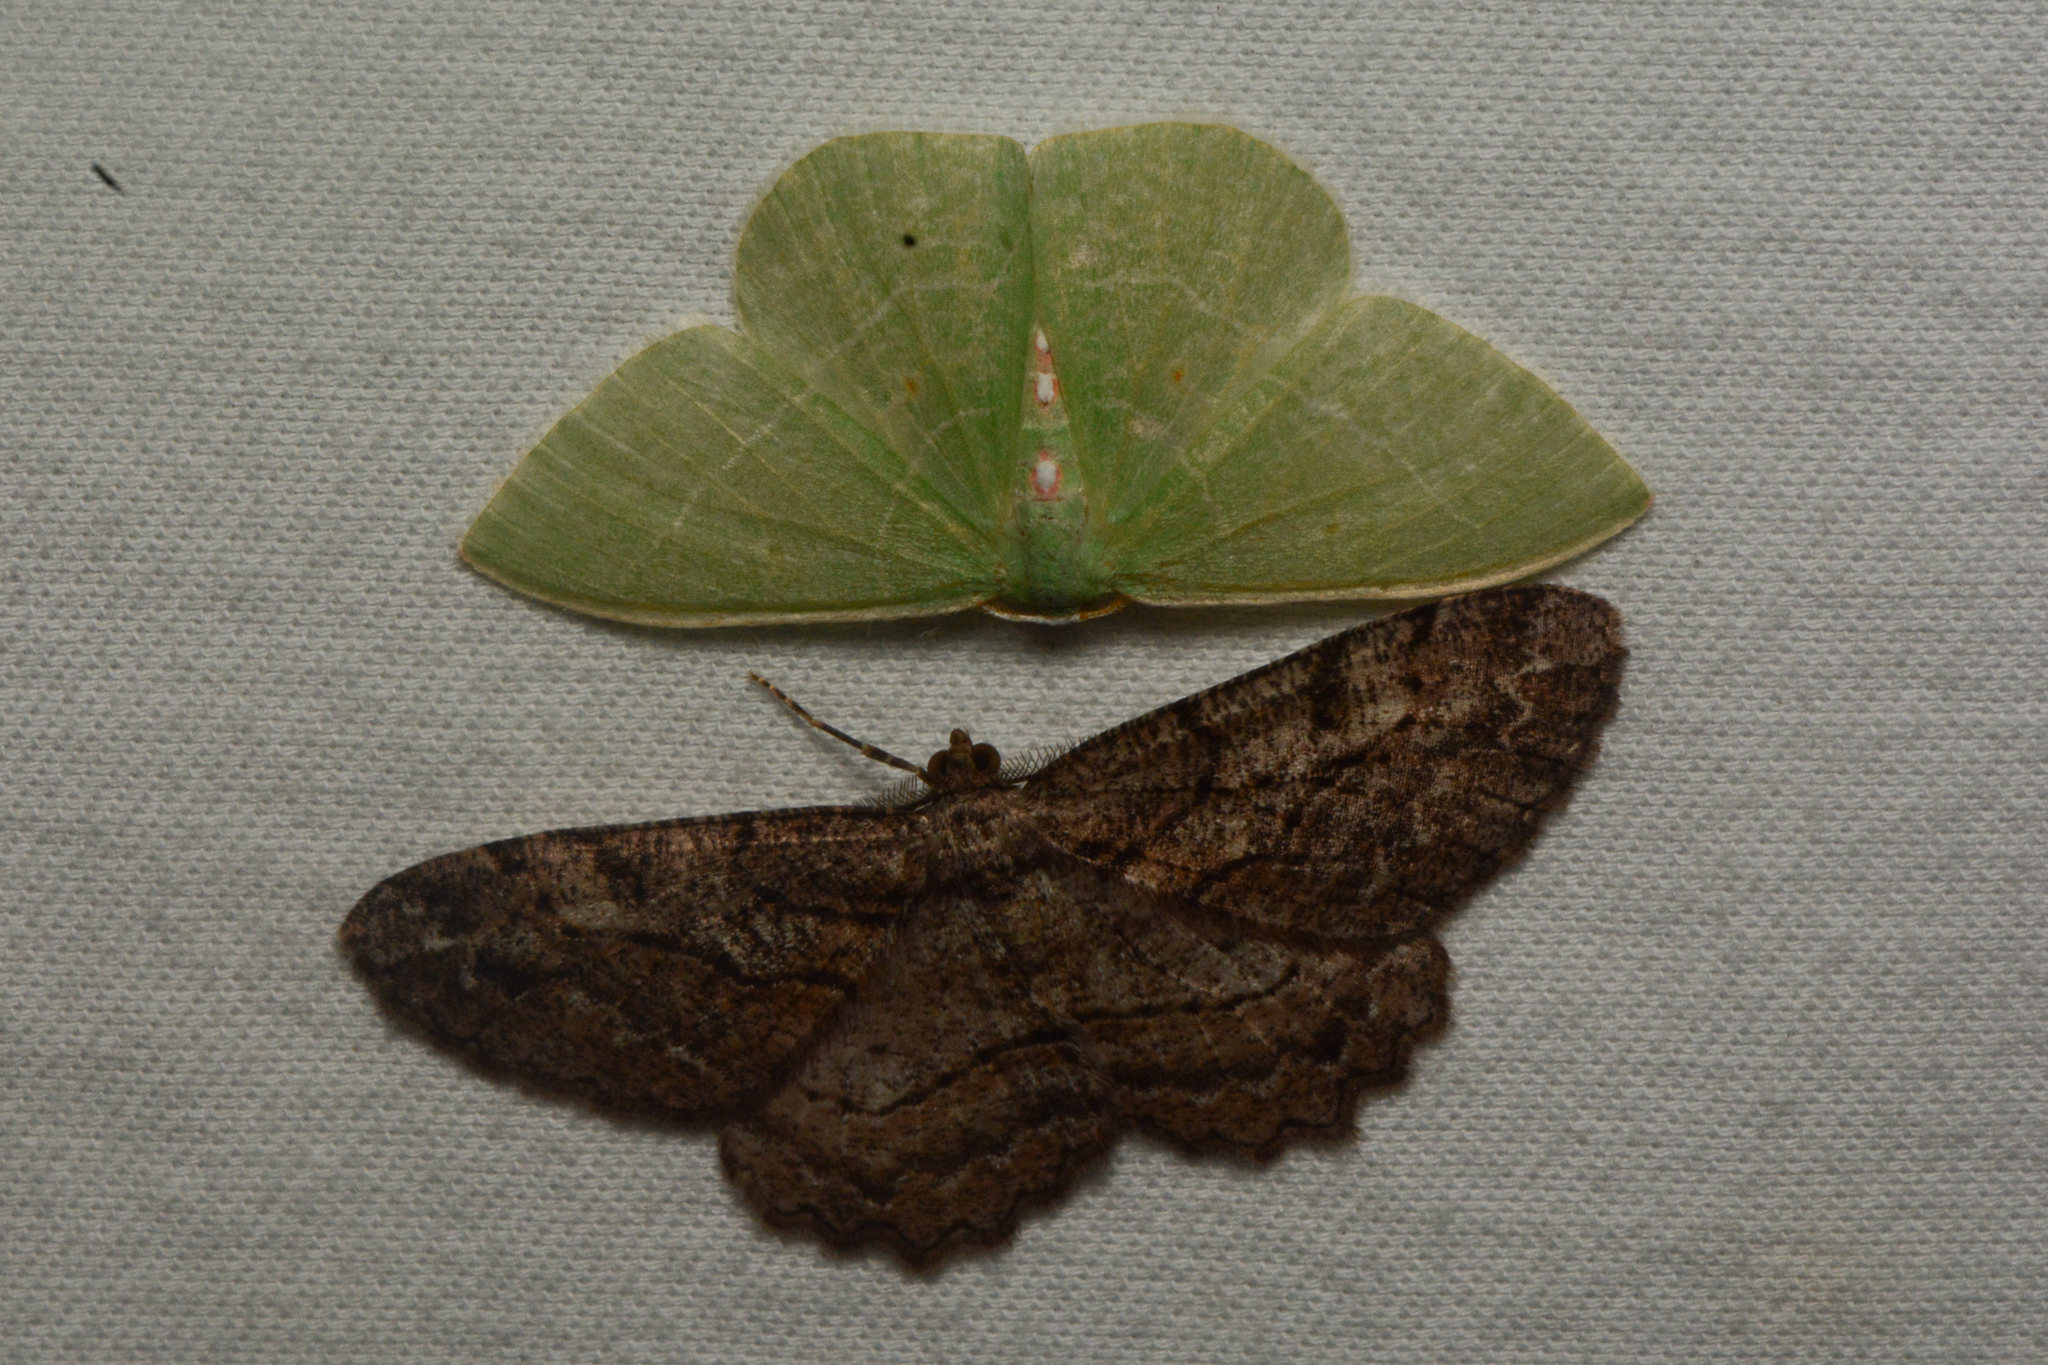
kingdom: Animalia
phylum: Arthropoda
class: Insecta
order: Lepidoptera
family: Geometridae
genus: Neoalcis
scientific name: Neoalcis californiaria
